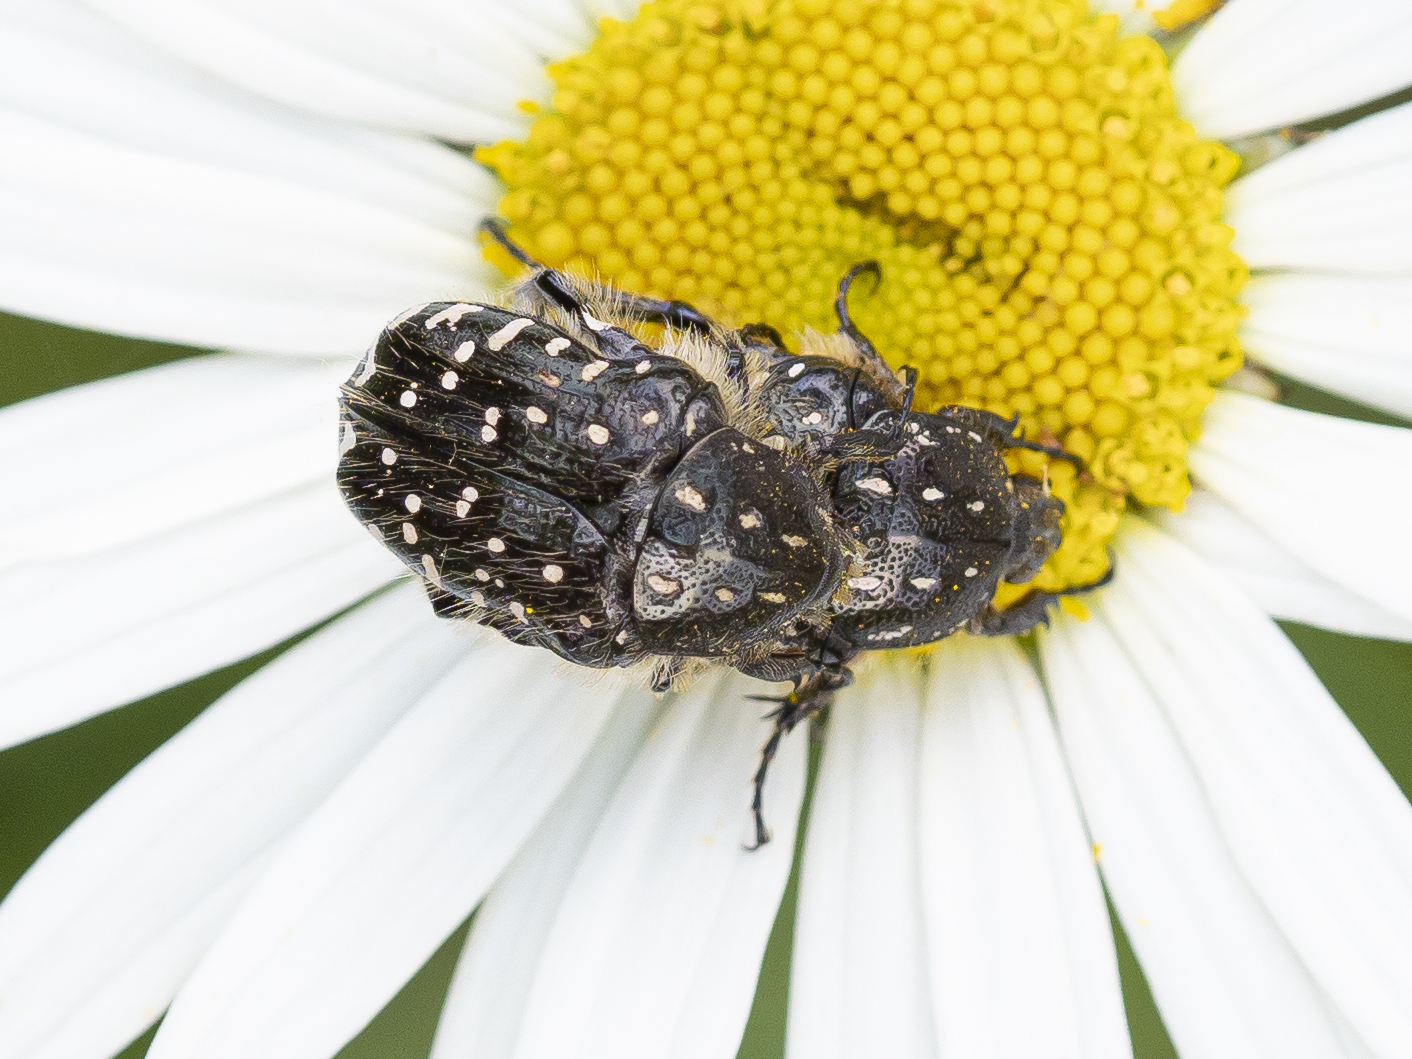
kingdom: Animalia
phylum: Arthropoda
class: Insecta
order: Coleoptera
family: Scarabaeidae
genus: Oxythyrea
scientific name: Oxythyrea funesta
